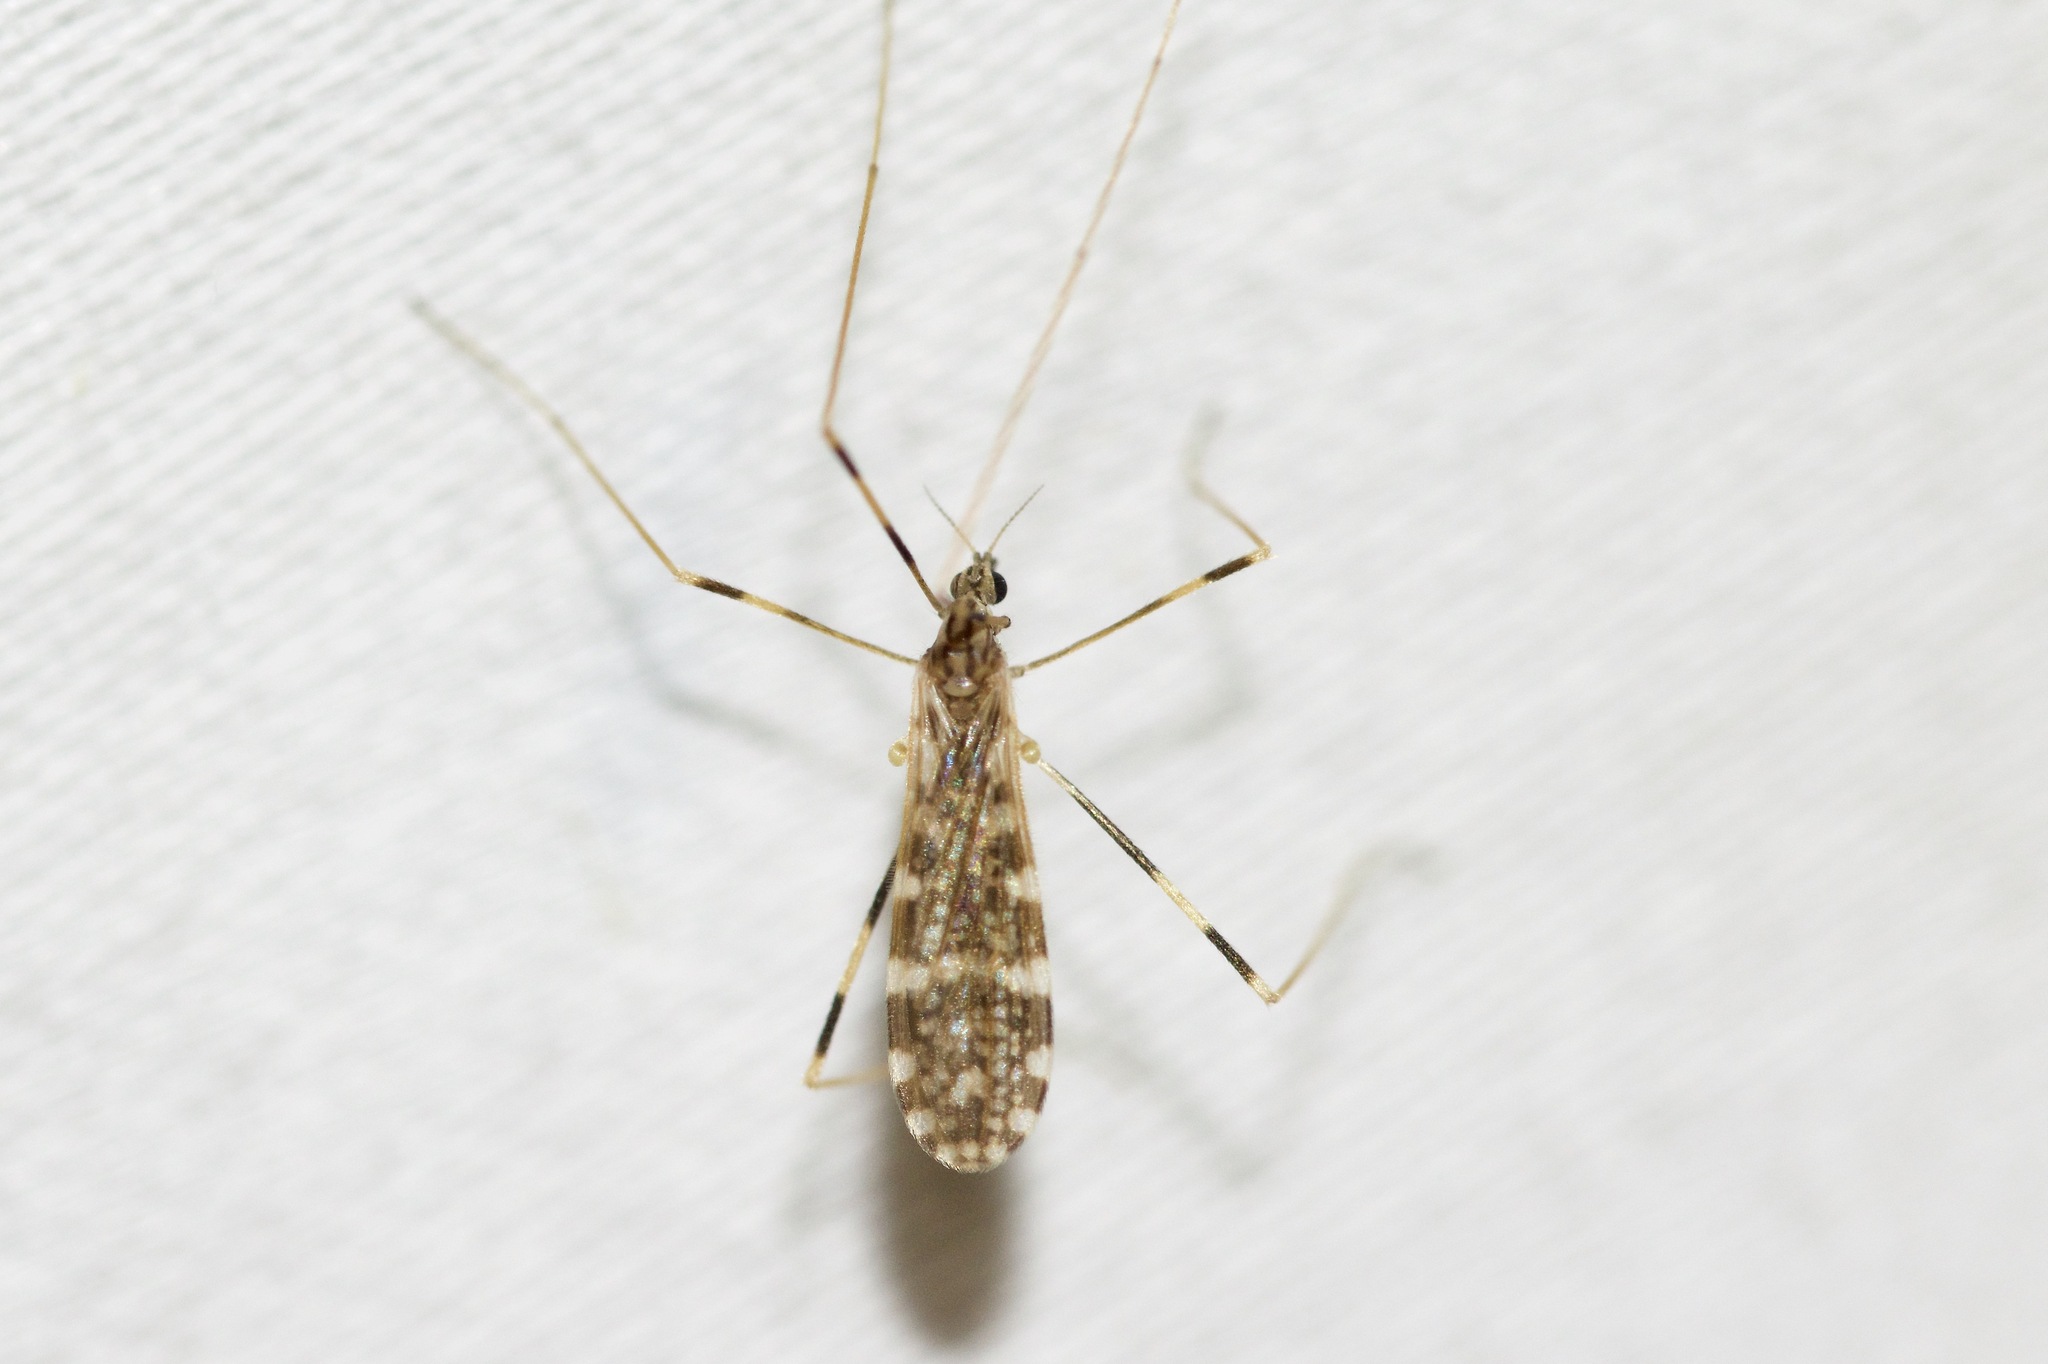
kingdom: Animalia
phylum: Arthropoda
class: Insecta
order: Diptera
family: Limoniidae
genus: Erioptera
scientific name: Erioptera caliptera
